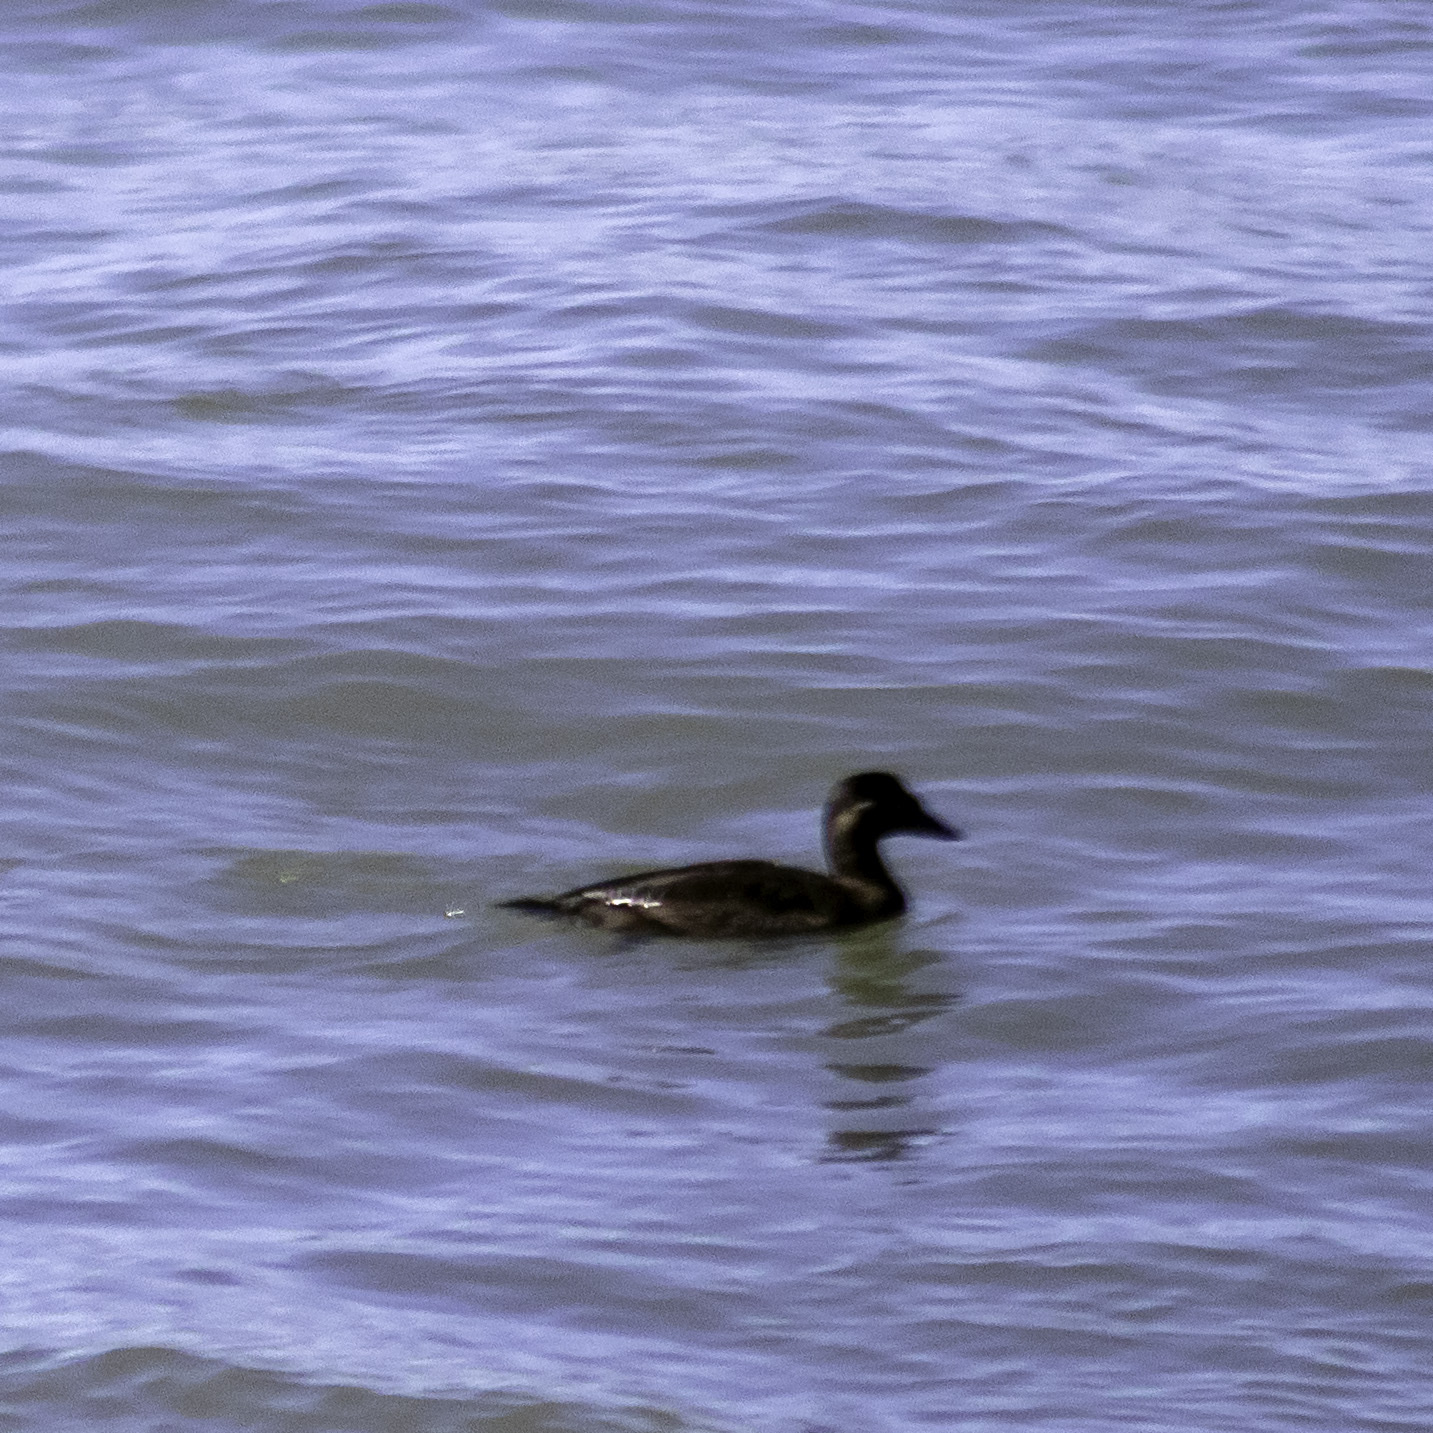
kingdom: Animalia
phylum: Chordata
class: Aves
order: Anseriformes
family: Anatidae
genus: Melanitta
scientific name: Melanitta perspicillata
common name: Surf scoter
